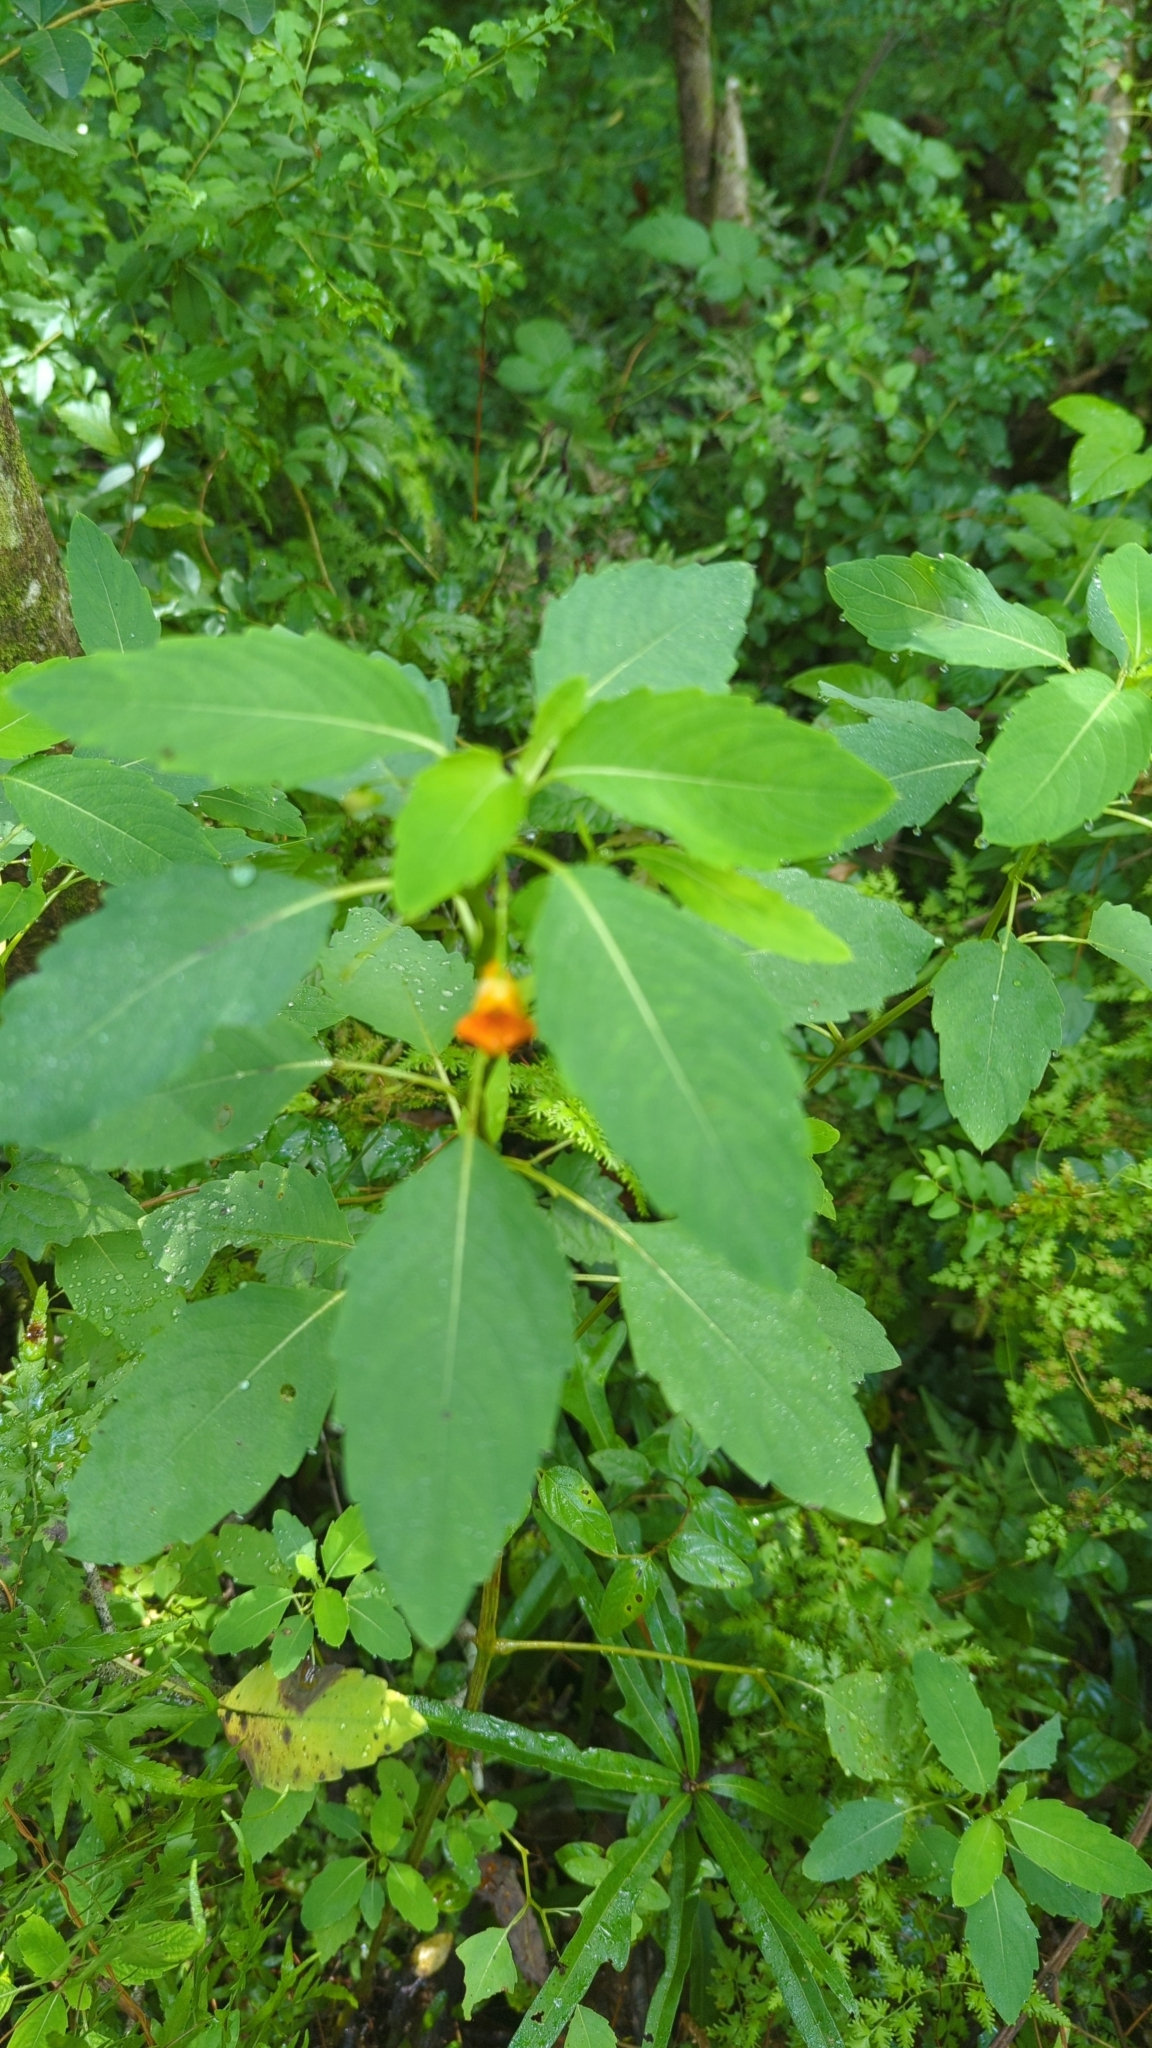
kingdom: Plantae
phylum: Tracheophyta
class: Magnoliopsida
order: Ericales
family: Balsaminaceae
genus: Impatiens
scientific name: Impatiens capensis
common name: Orange balsam
